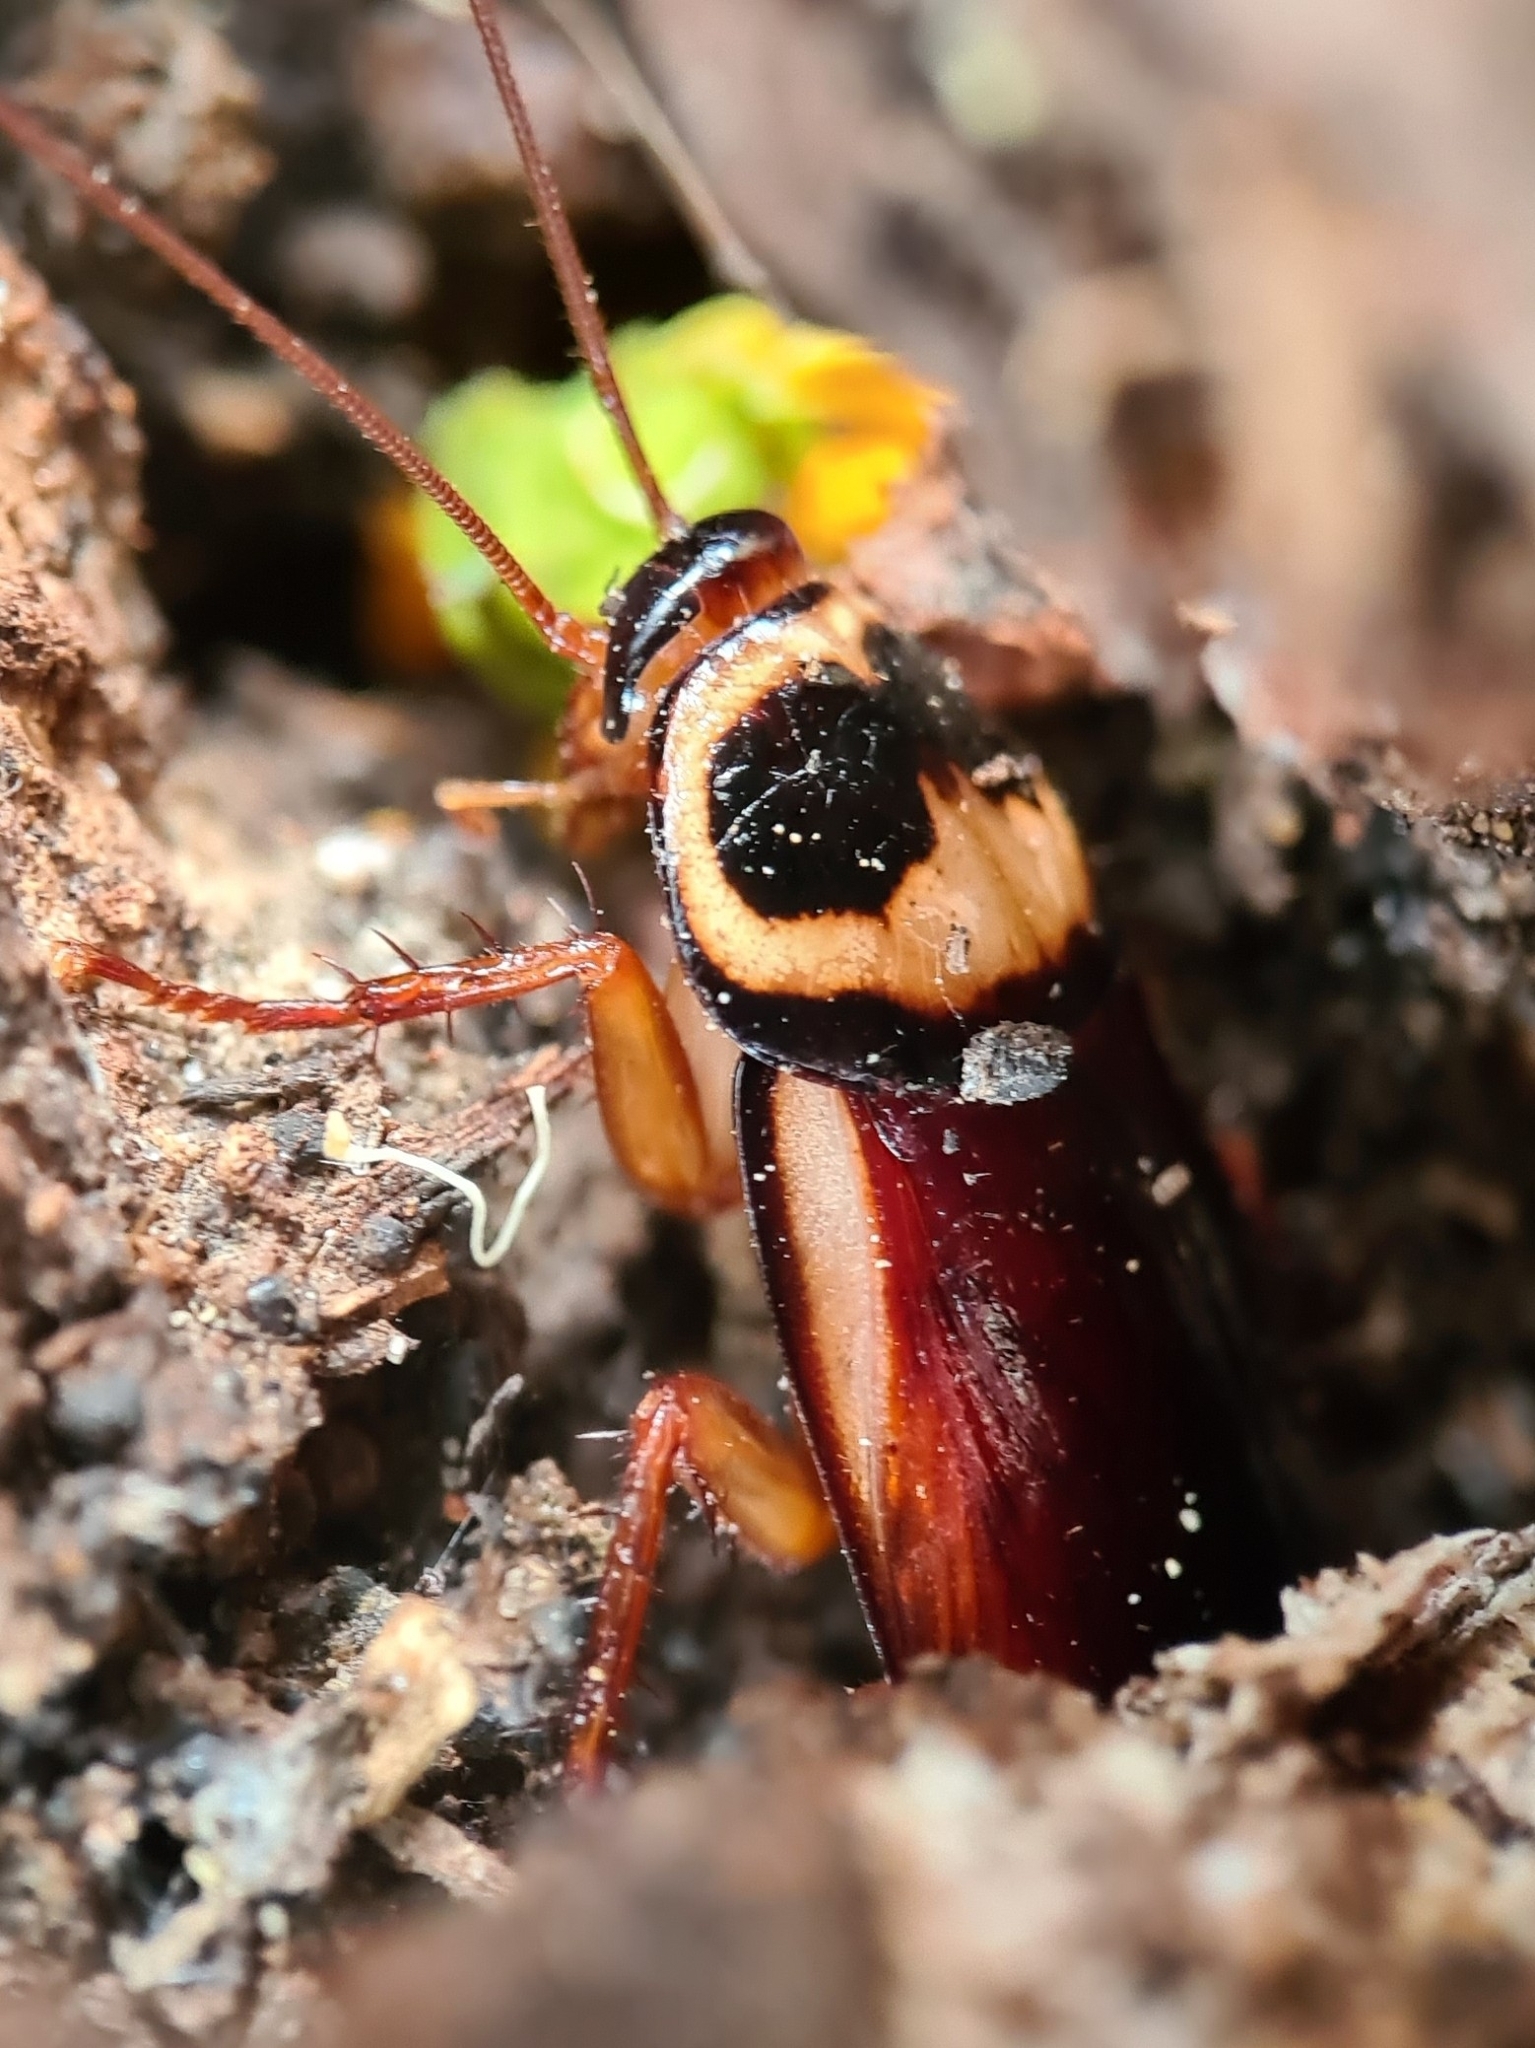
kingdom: Animalia
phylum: Arthropoda
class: Insecta
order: Blattodea
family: Blattidae
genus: Periplaneta
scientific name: Periplaneta australasiae
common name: Australian cockroach
